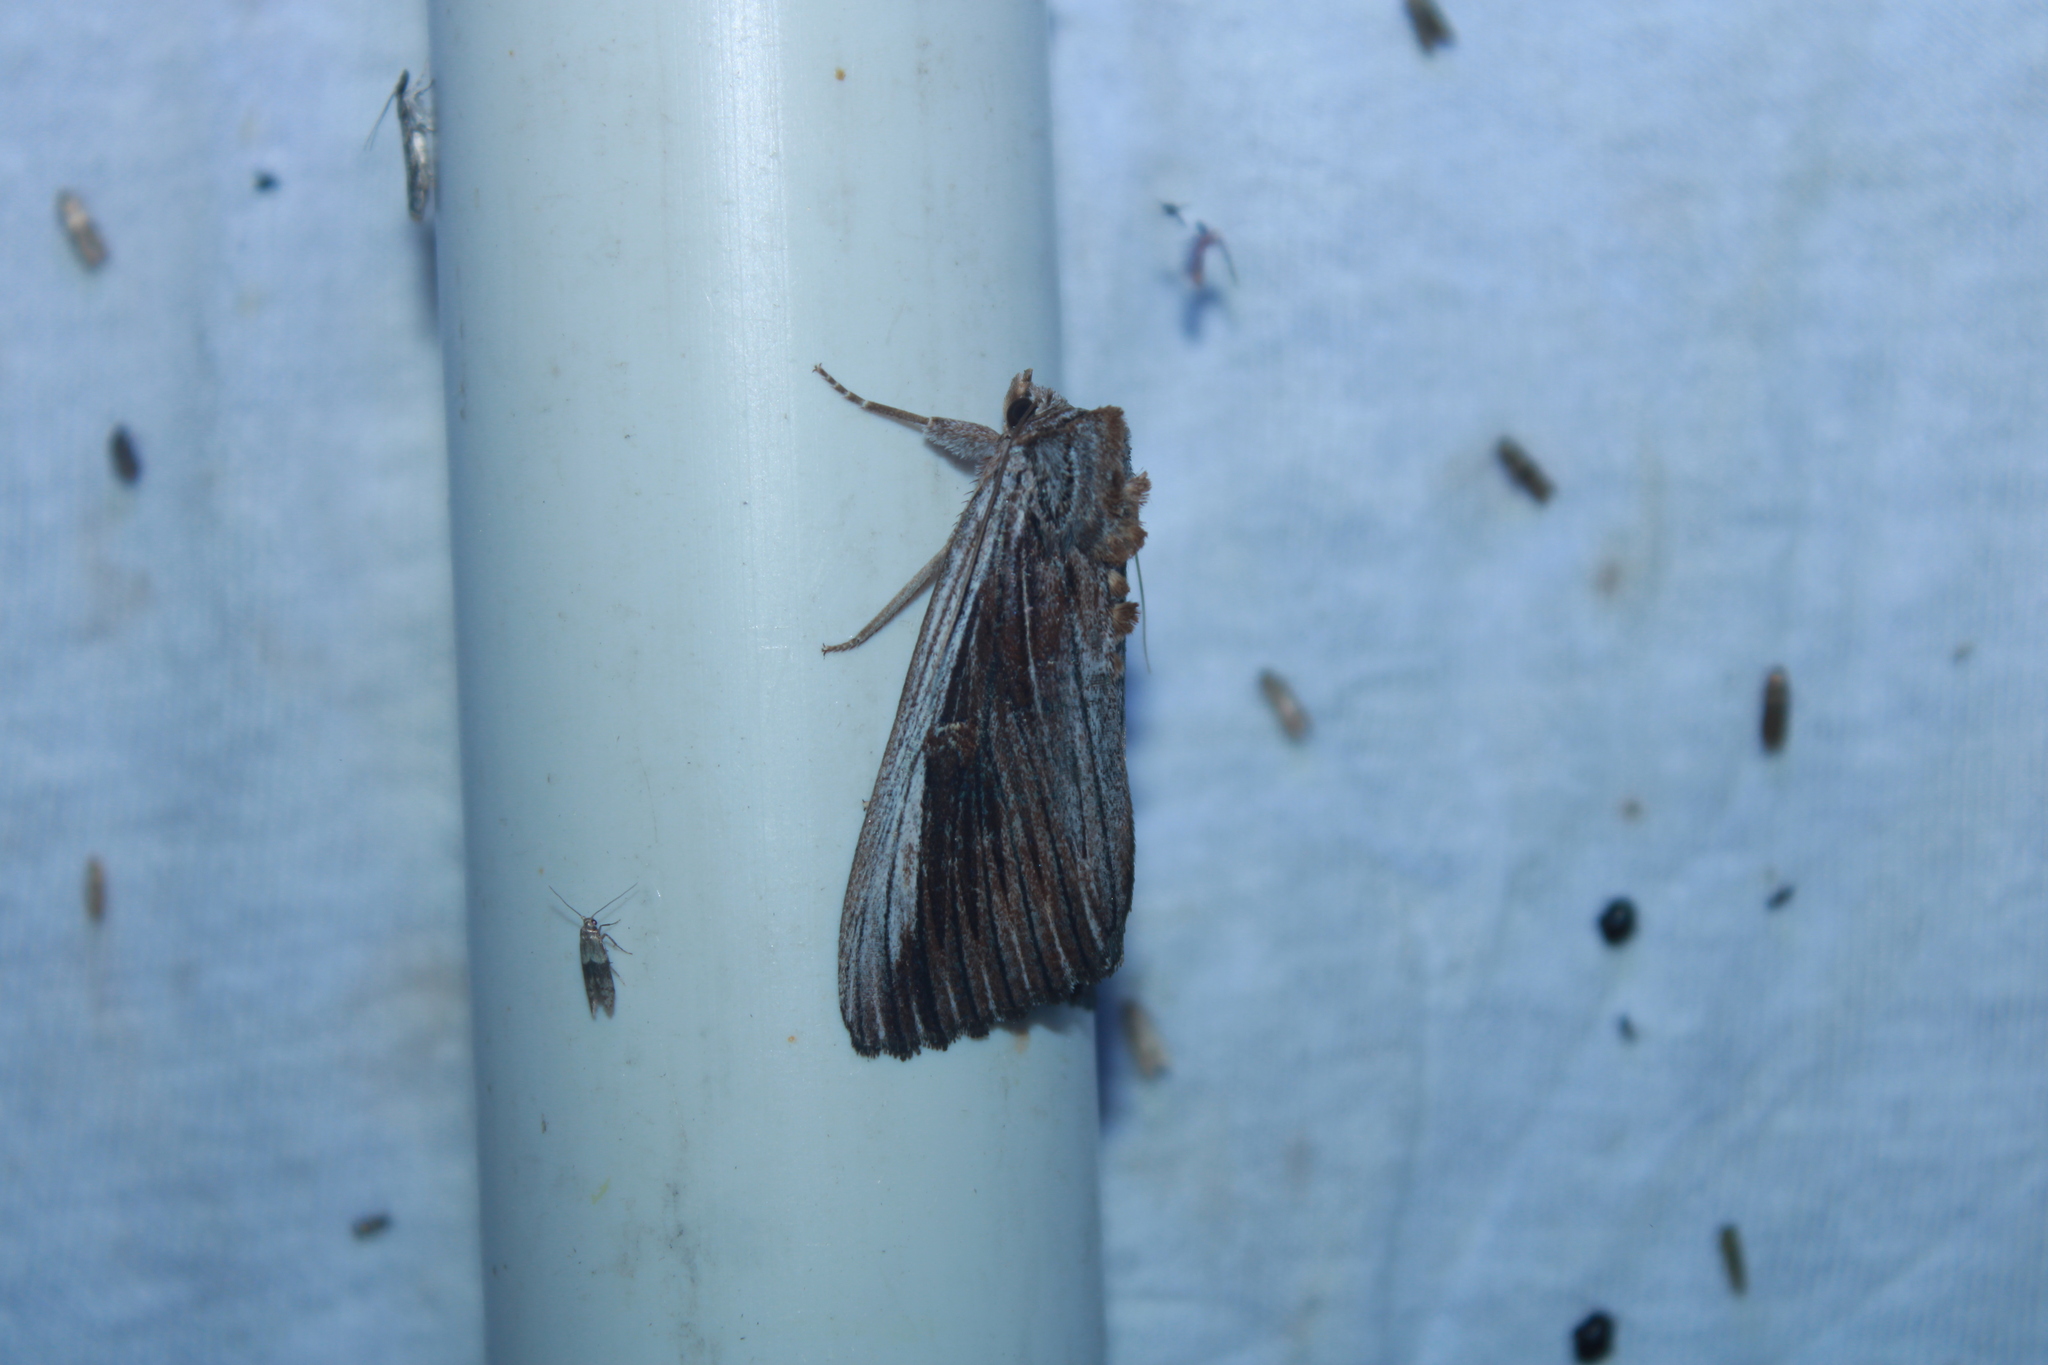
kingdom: Animalia
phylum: Arthropoda
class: Insecta
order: Lepidoptera
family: Erebidae
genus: Catocala
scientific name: Catocala herodias
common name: Pine barrens underwing
